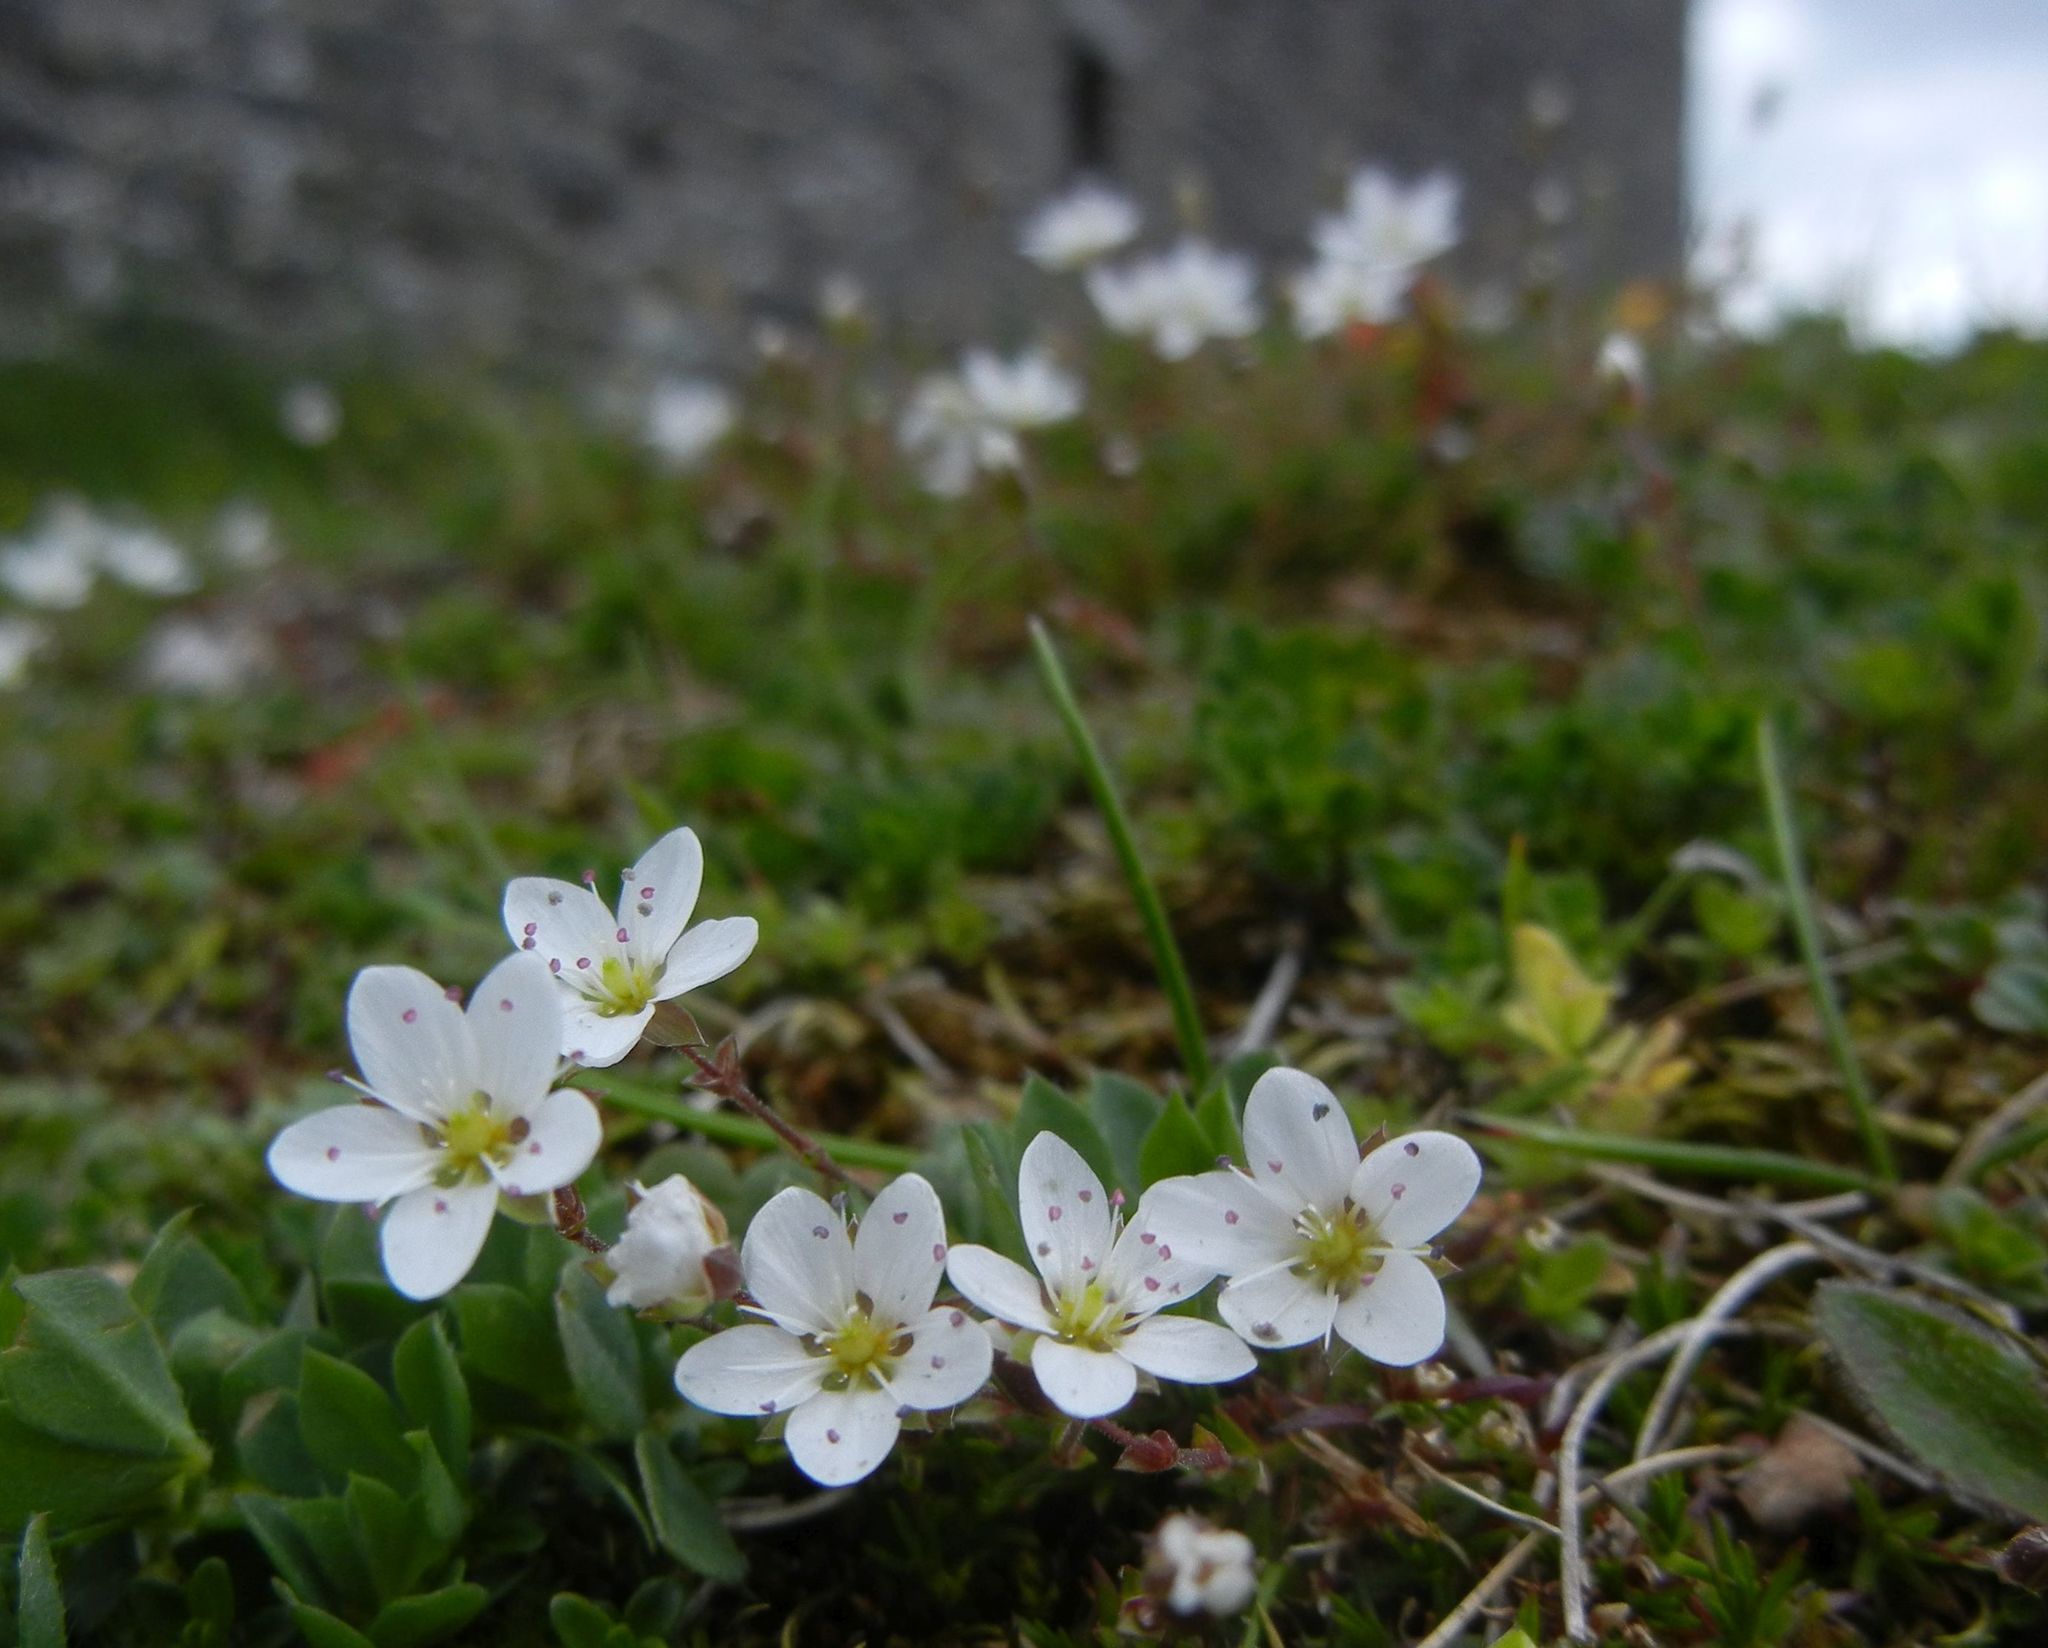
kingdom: Plantae
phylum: Tracheophyta
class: Magnoliopsida
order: Caryophyllales
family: Caryophyllaceae
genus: Sabulina
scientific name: Sabulina verna
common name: Spring sandwort
